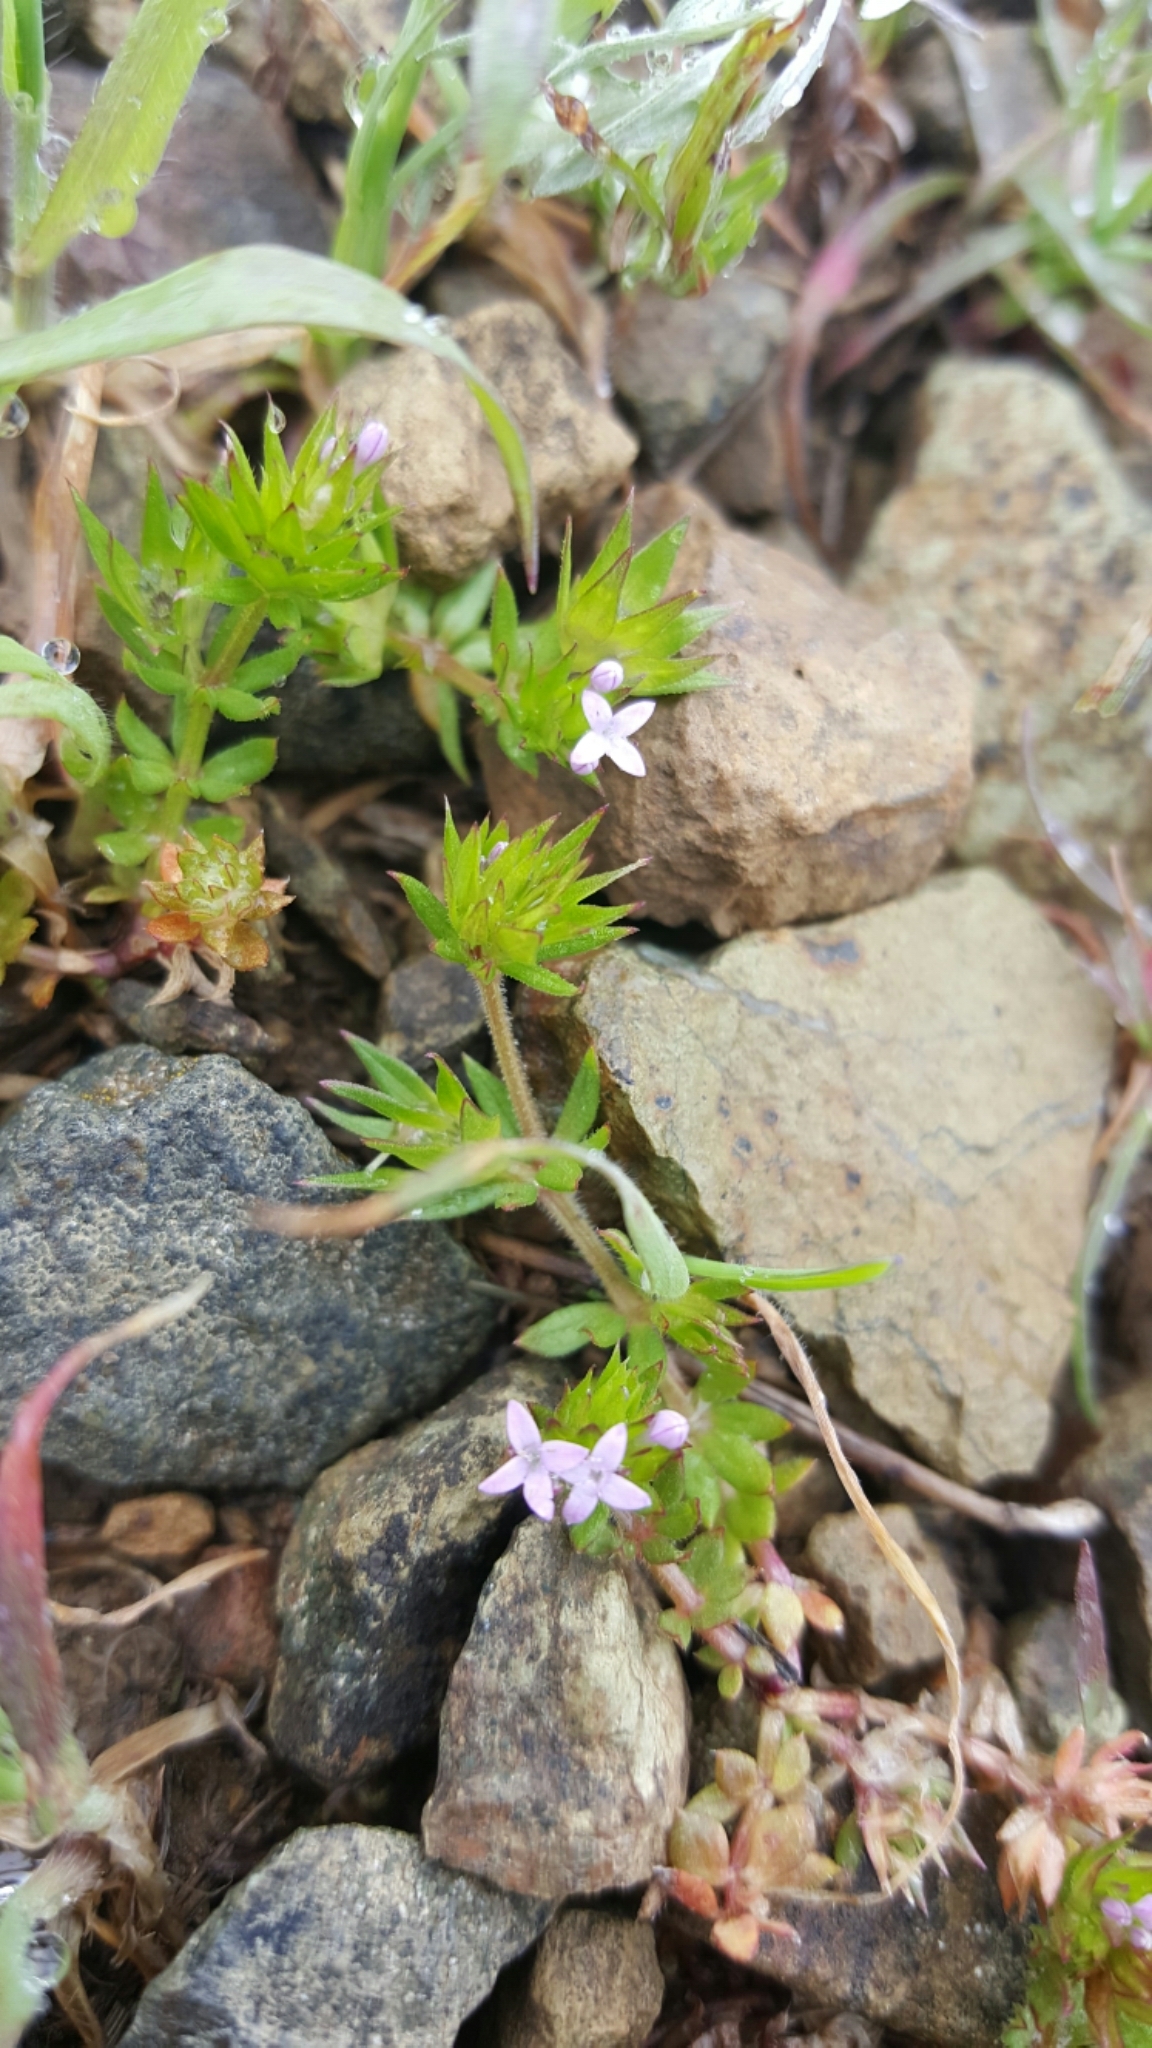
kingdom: Plantae
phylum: Tracheophyta
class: Magnoliopsida
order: Gentianales
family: Rubiaceae
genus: Sherardia
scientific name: Sherardia arvensis
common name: Field madder
